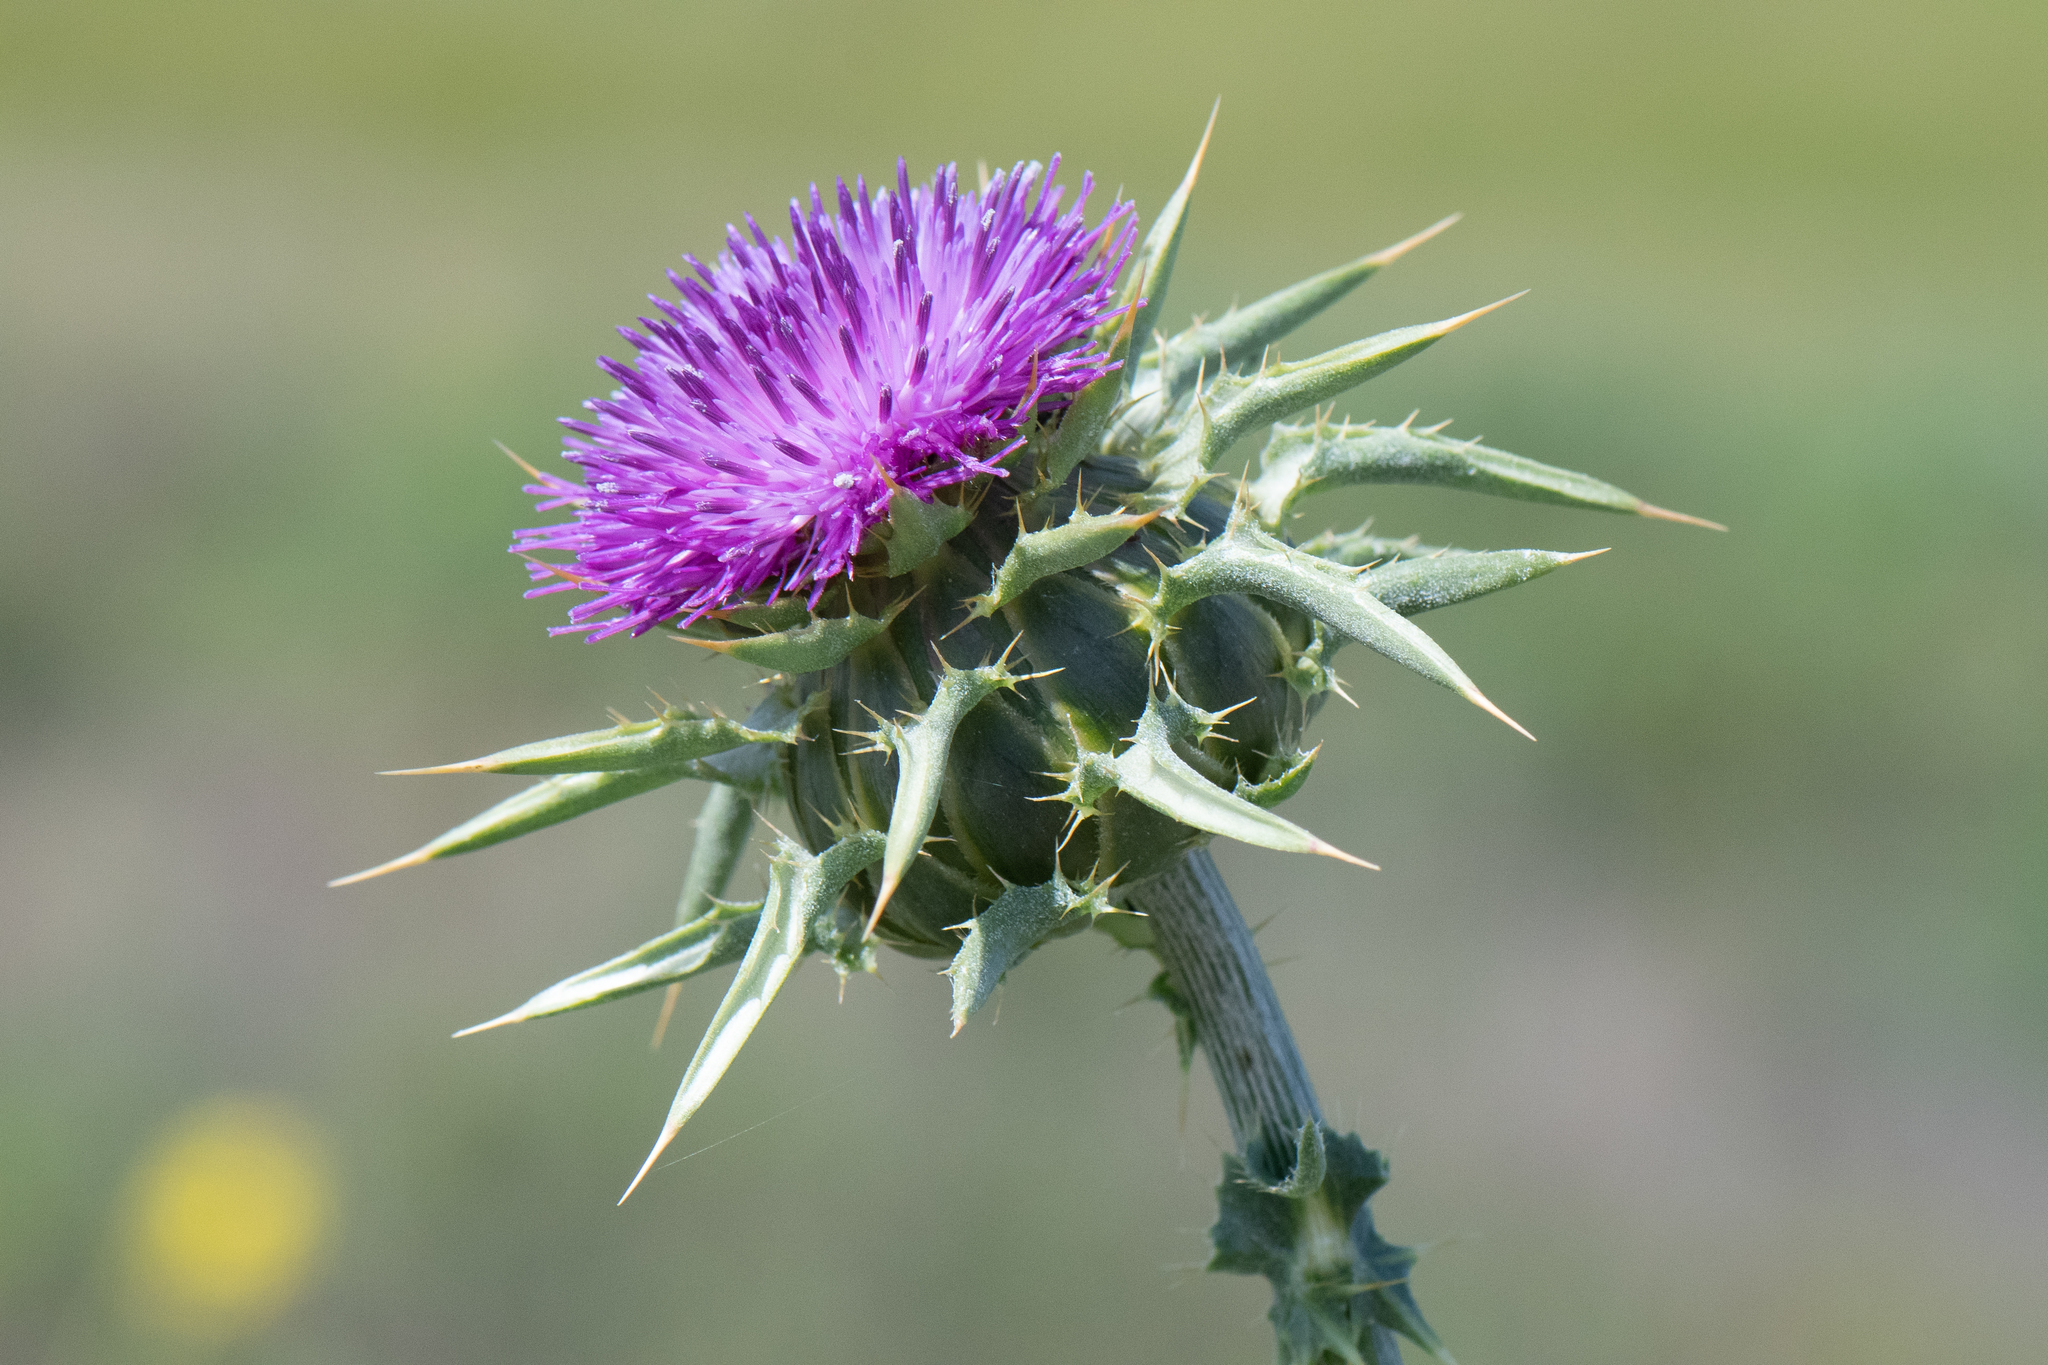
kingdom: Plantae
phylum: Tracheophyta
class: Magnoliopsida
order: Asterales
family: Asteraceae
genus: Silybum
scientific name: Silybum marianum
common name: Milk thistle
